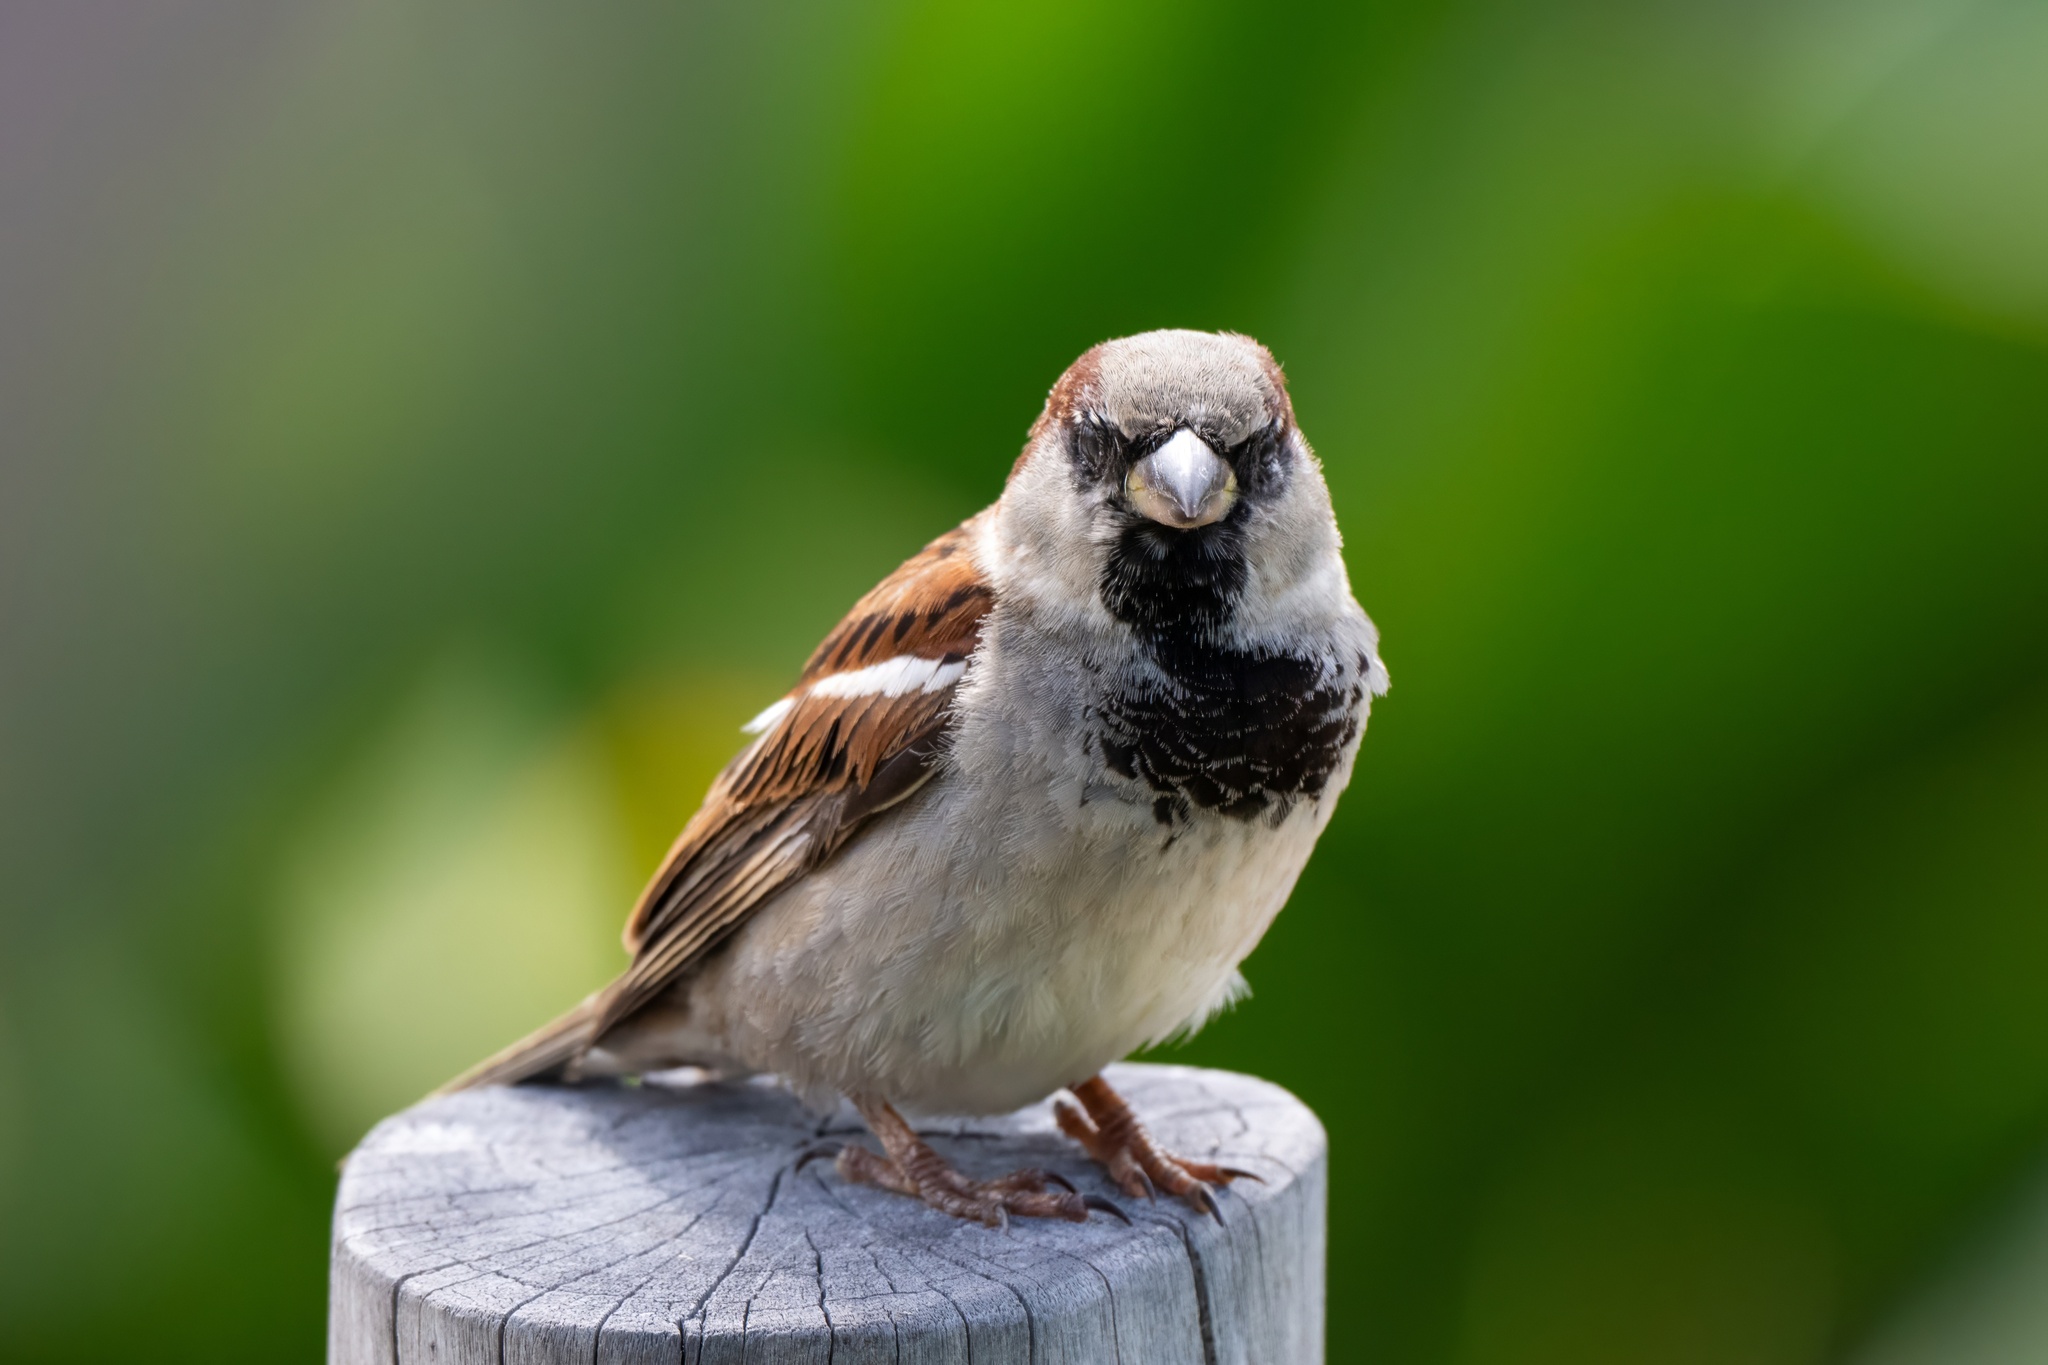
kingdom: Animalia
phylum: Chordata
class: Aves
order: Passeriformes
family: Passeridae
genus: Passer
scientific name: Passer domesticus
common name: House sparrow
